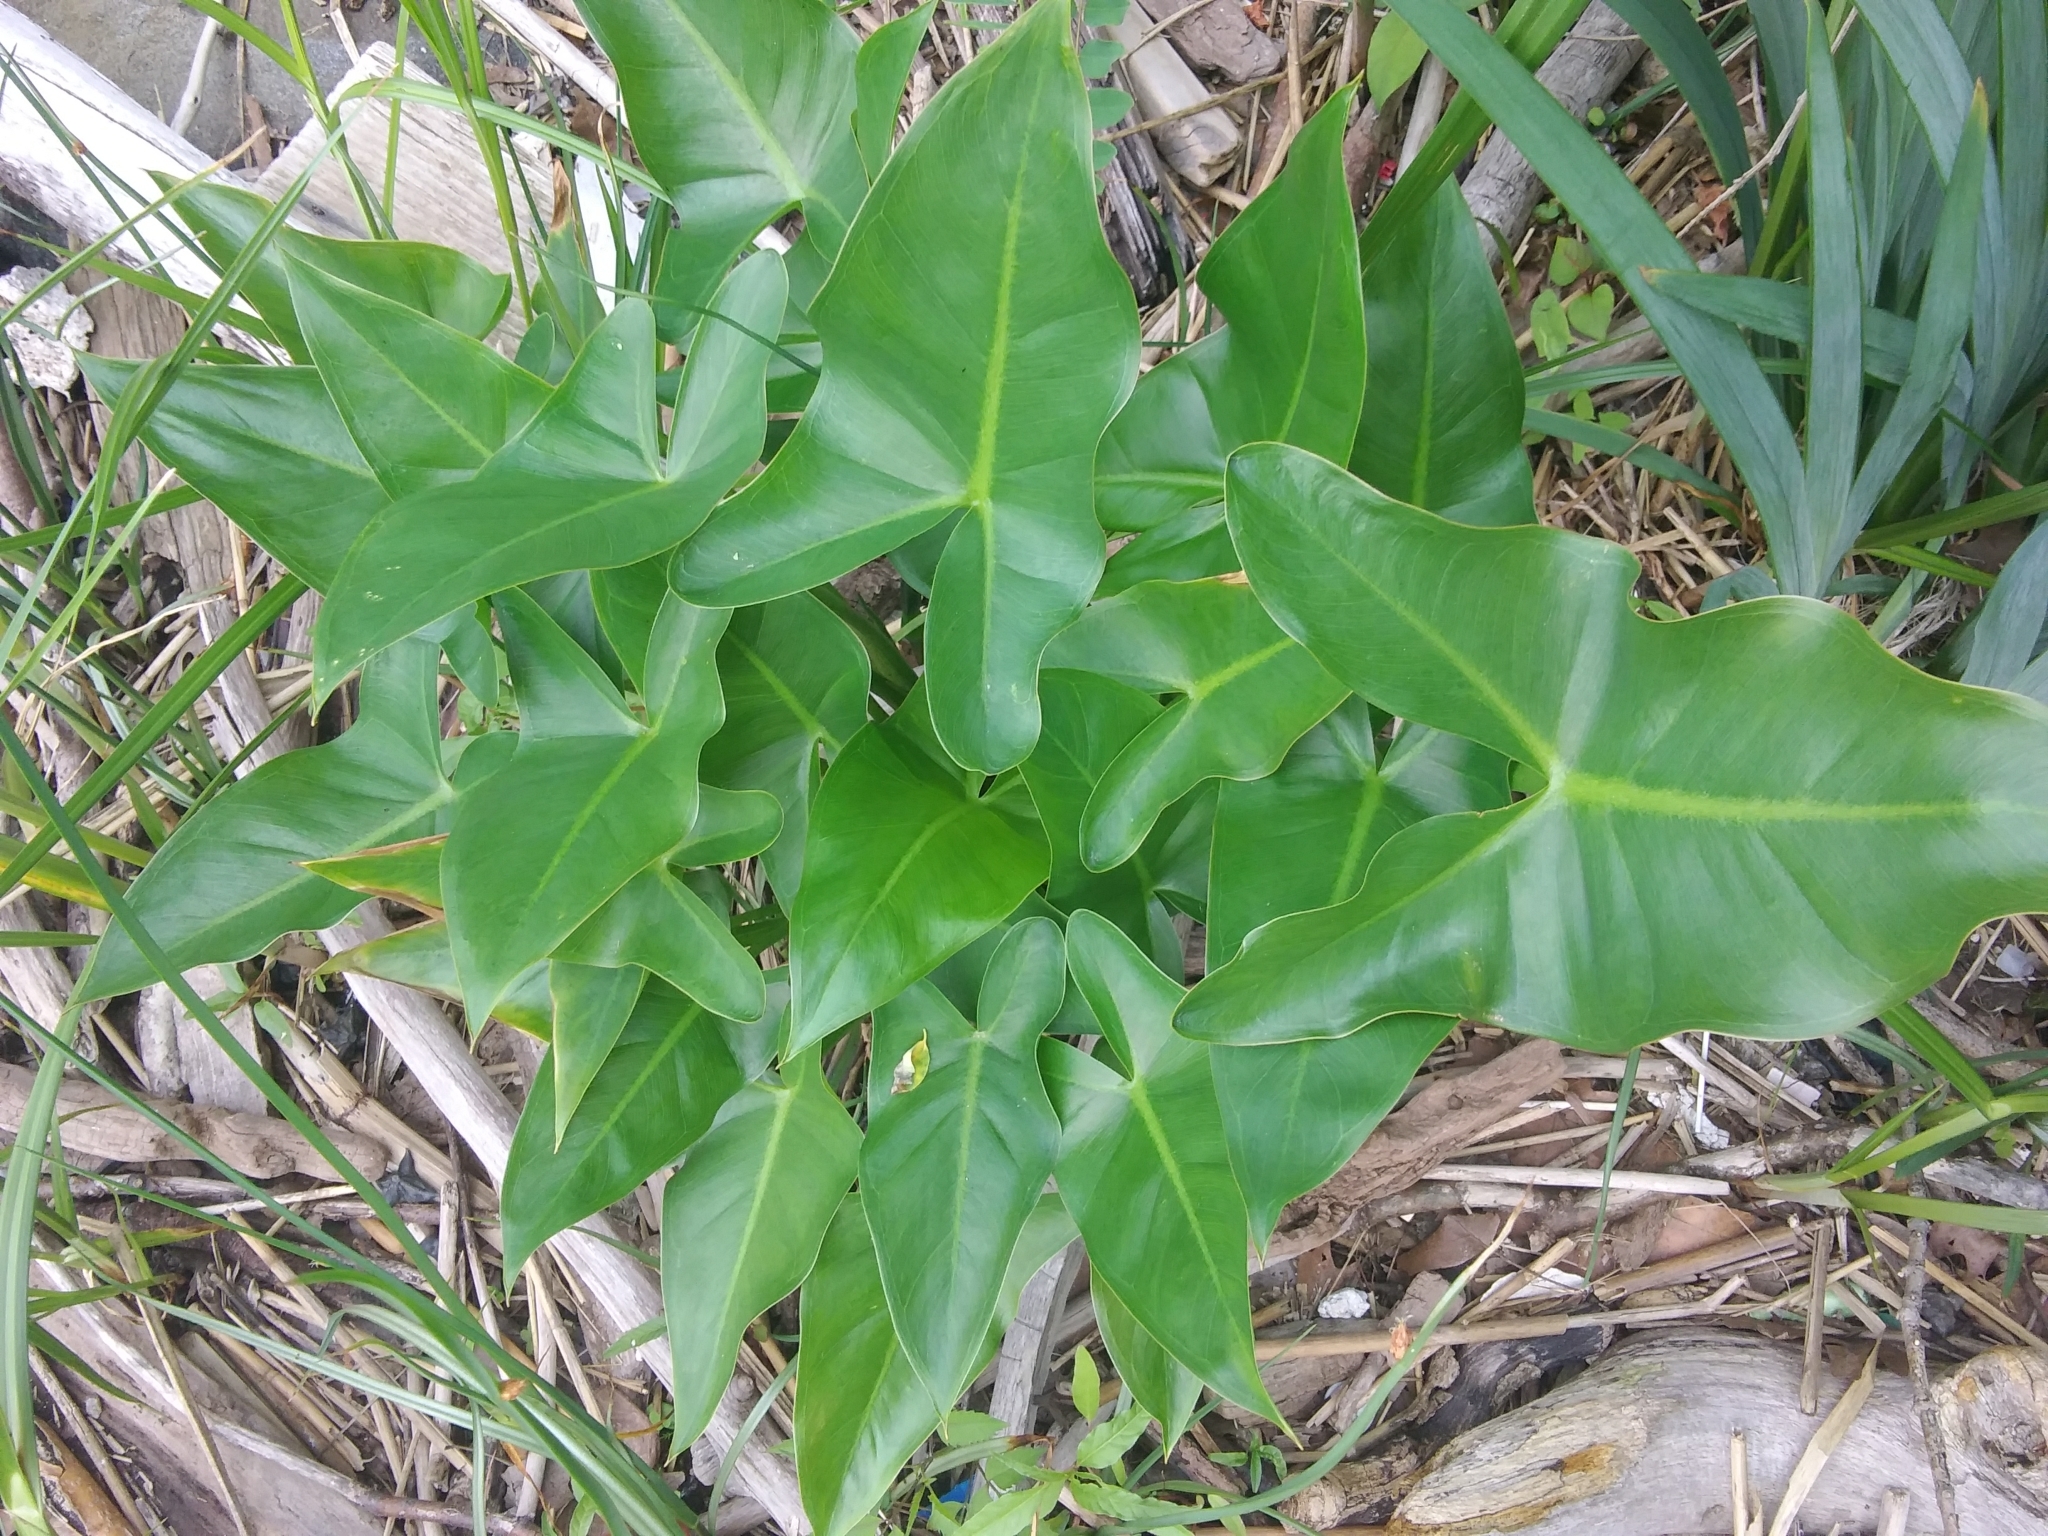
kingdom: Plantae
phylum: Tracheophyta
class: Liliopsida
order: Alismatales
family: Araceae
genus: Peltandra
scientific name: Peltandra virginica
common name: Arrow arum
